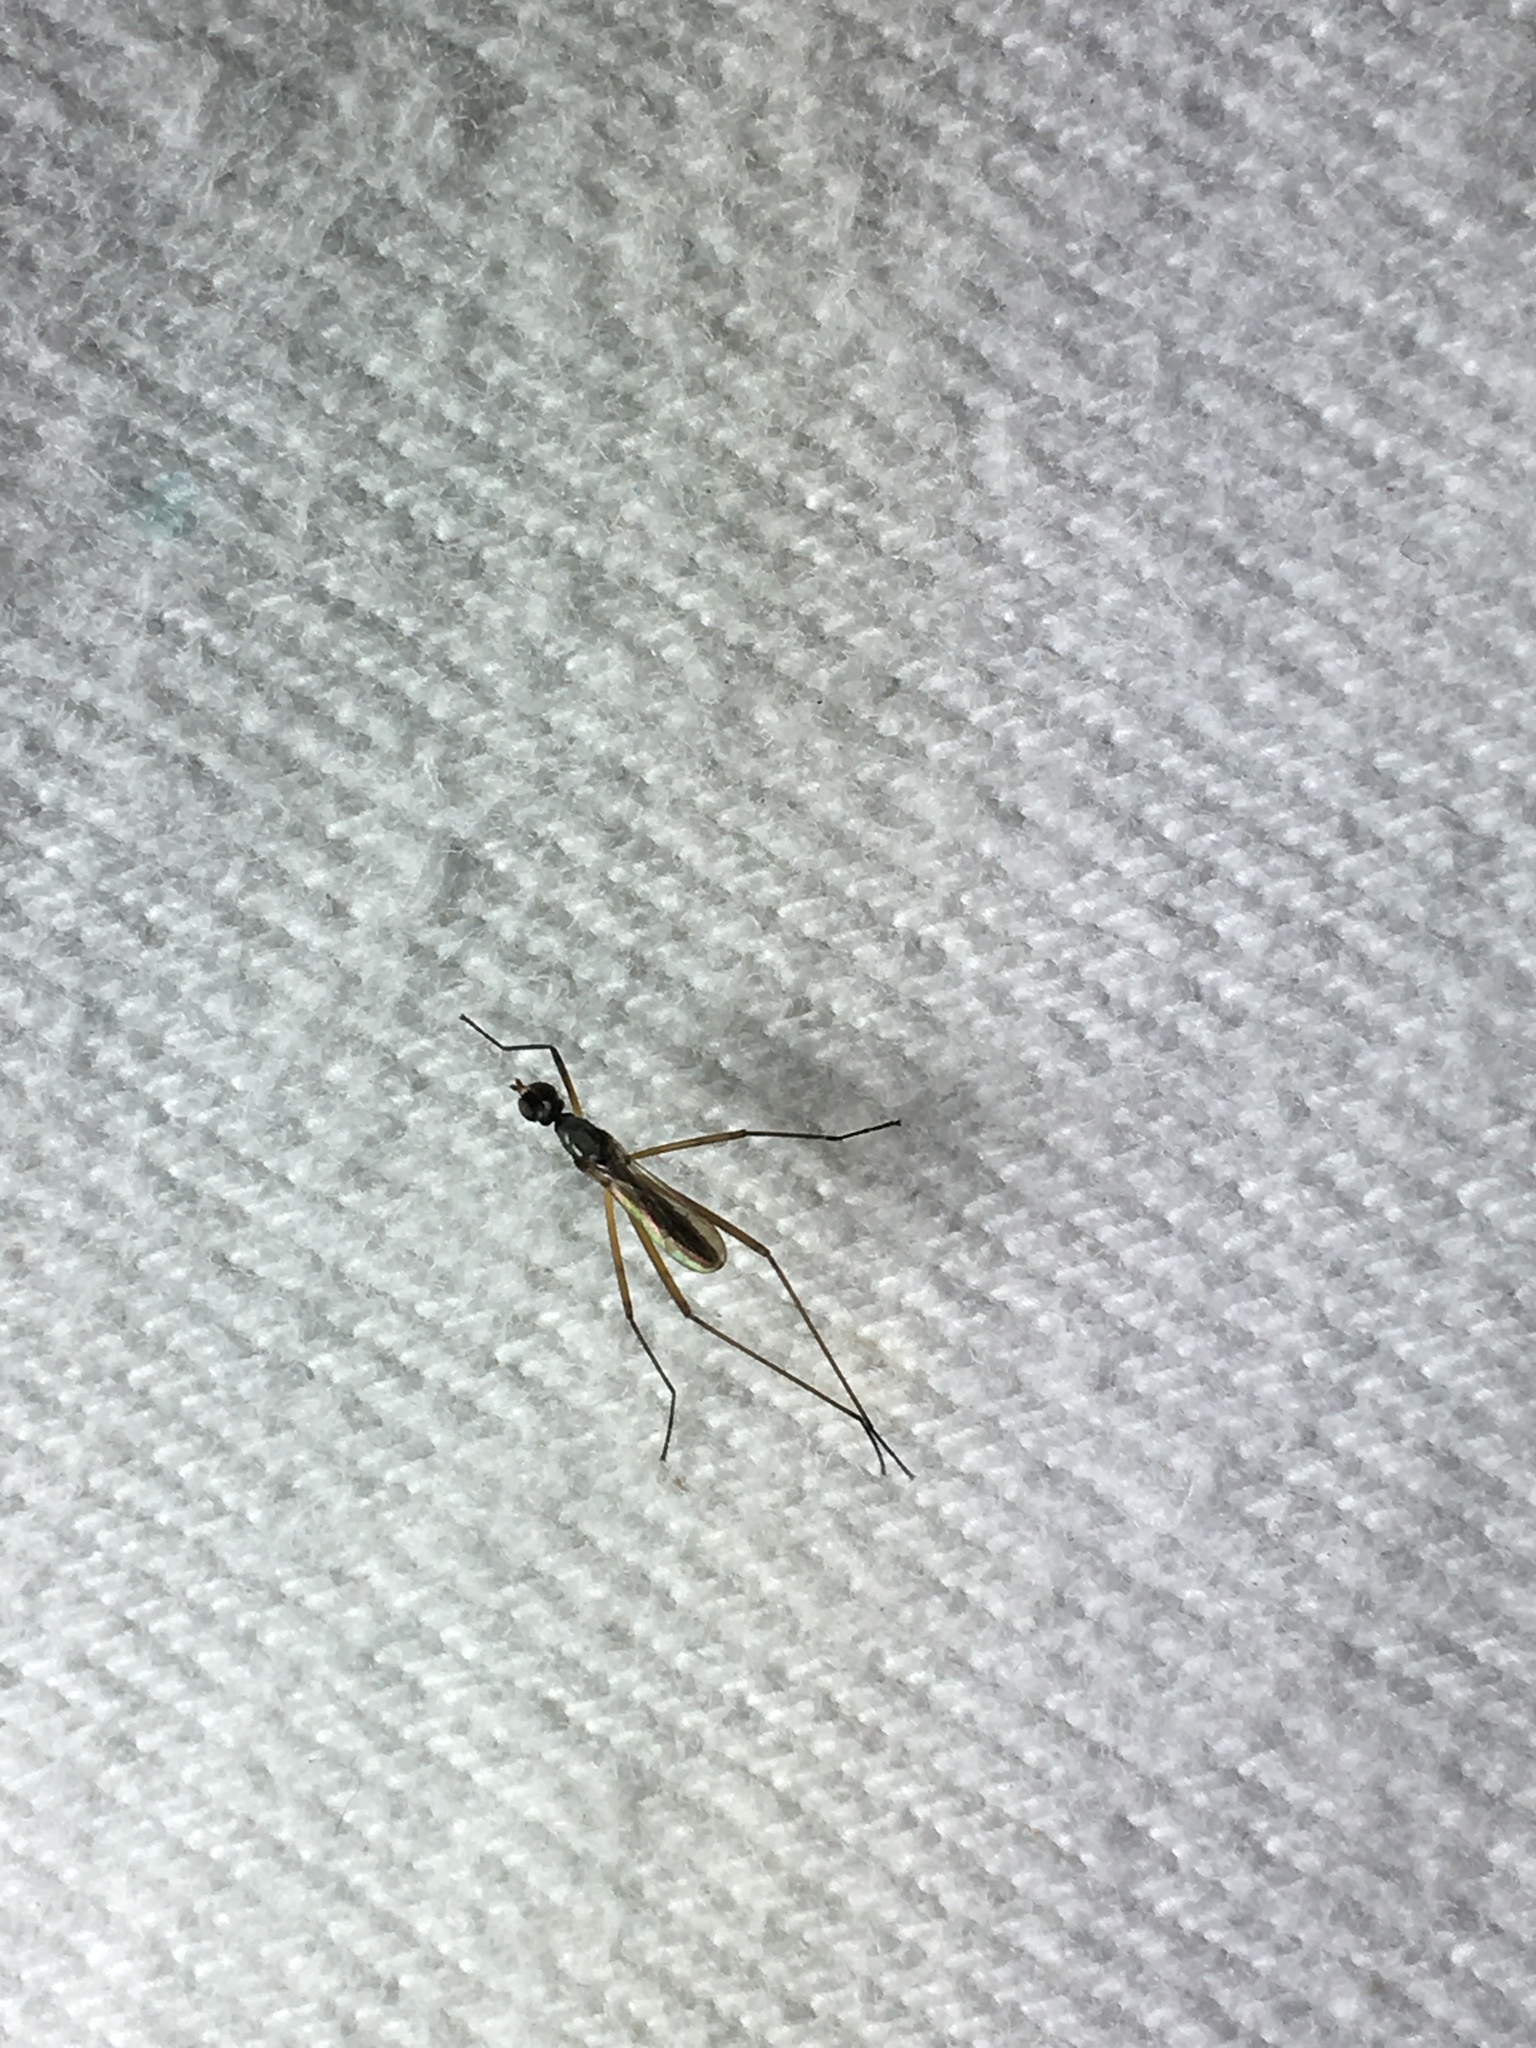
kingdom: Animalia
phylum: Arthropoda
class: Insecta
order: Diptera
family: Micropezidae
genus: Micropeza
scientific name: Micropeza albiseta
